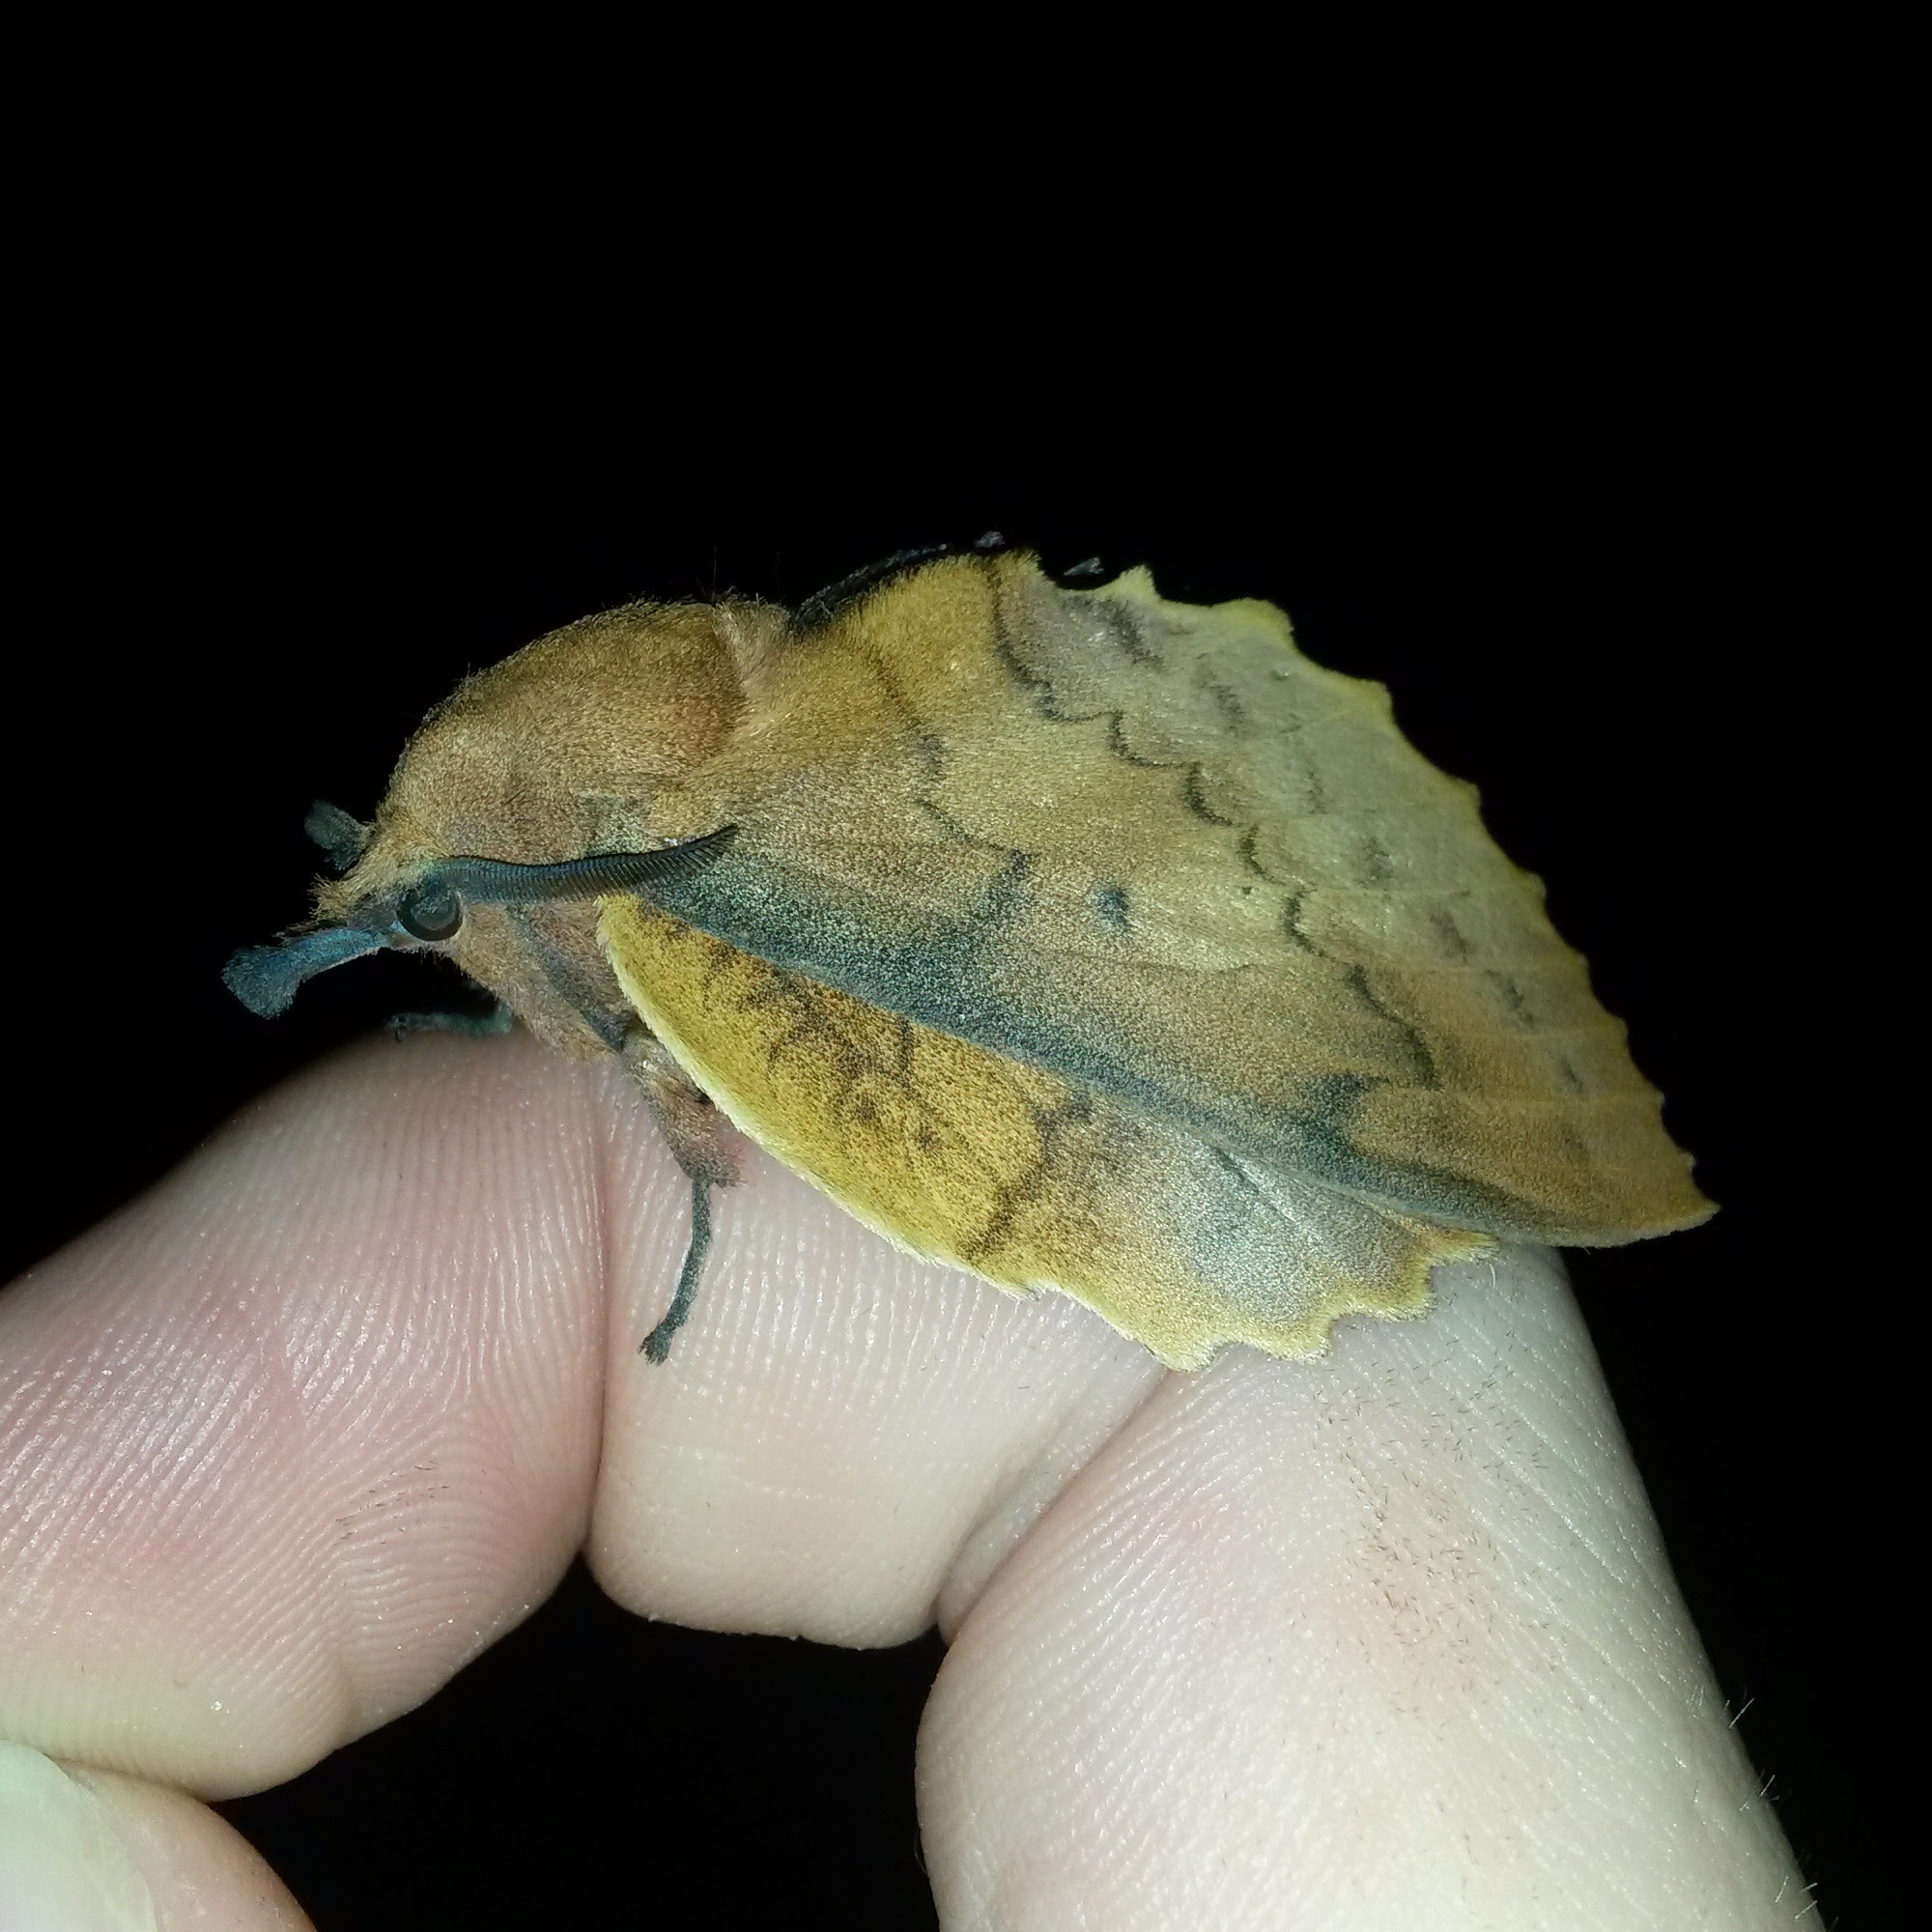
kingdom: Animalia
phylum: Arthropoda
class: Insecta
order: Lepidoptera
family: Lasiocampidae
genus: Gastropacha
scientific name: Gastropacha quercifolia
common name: Lappet
